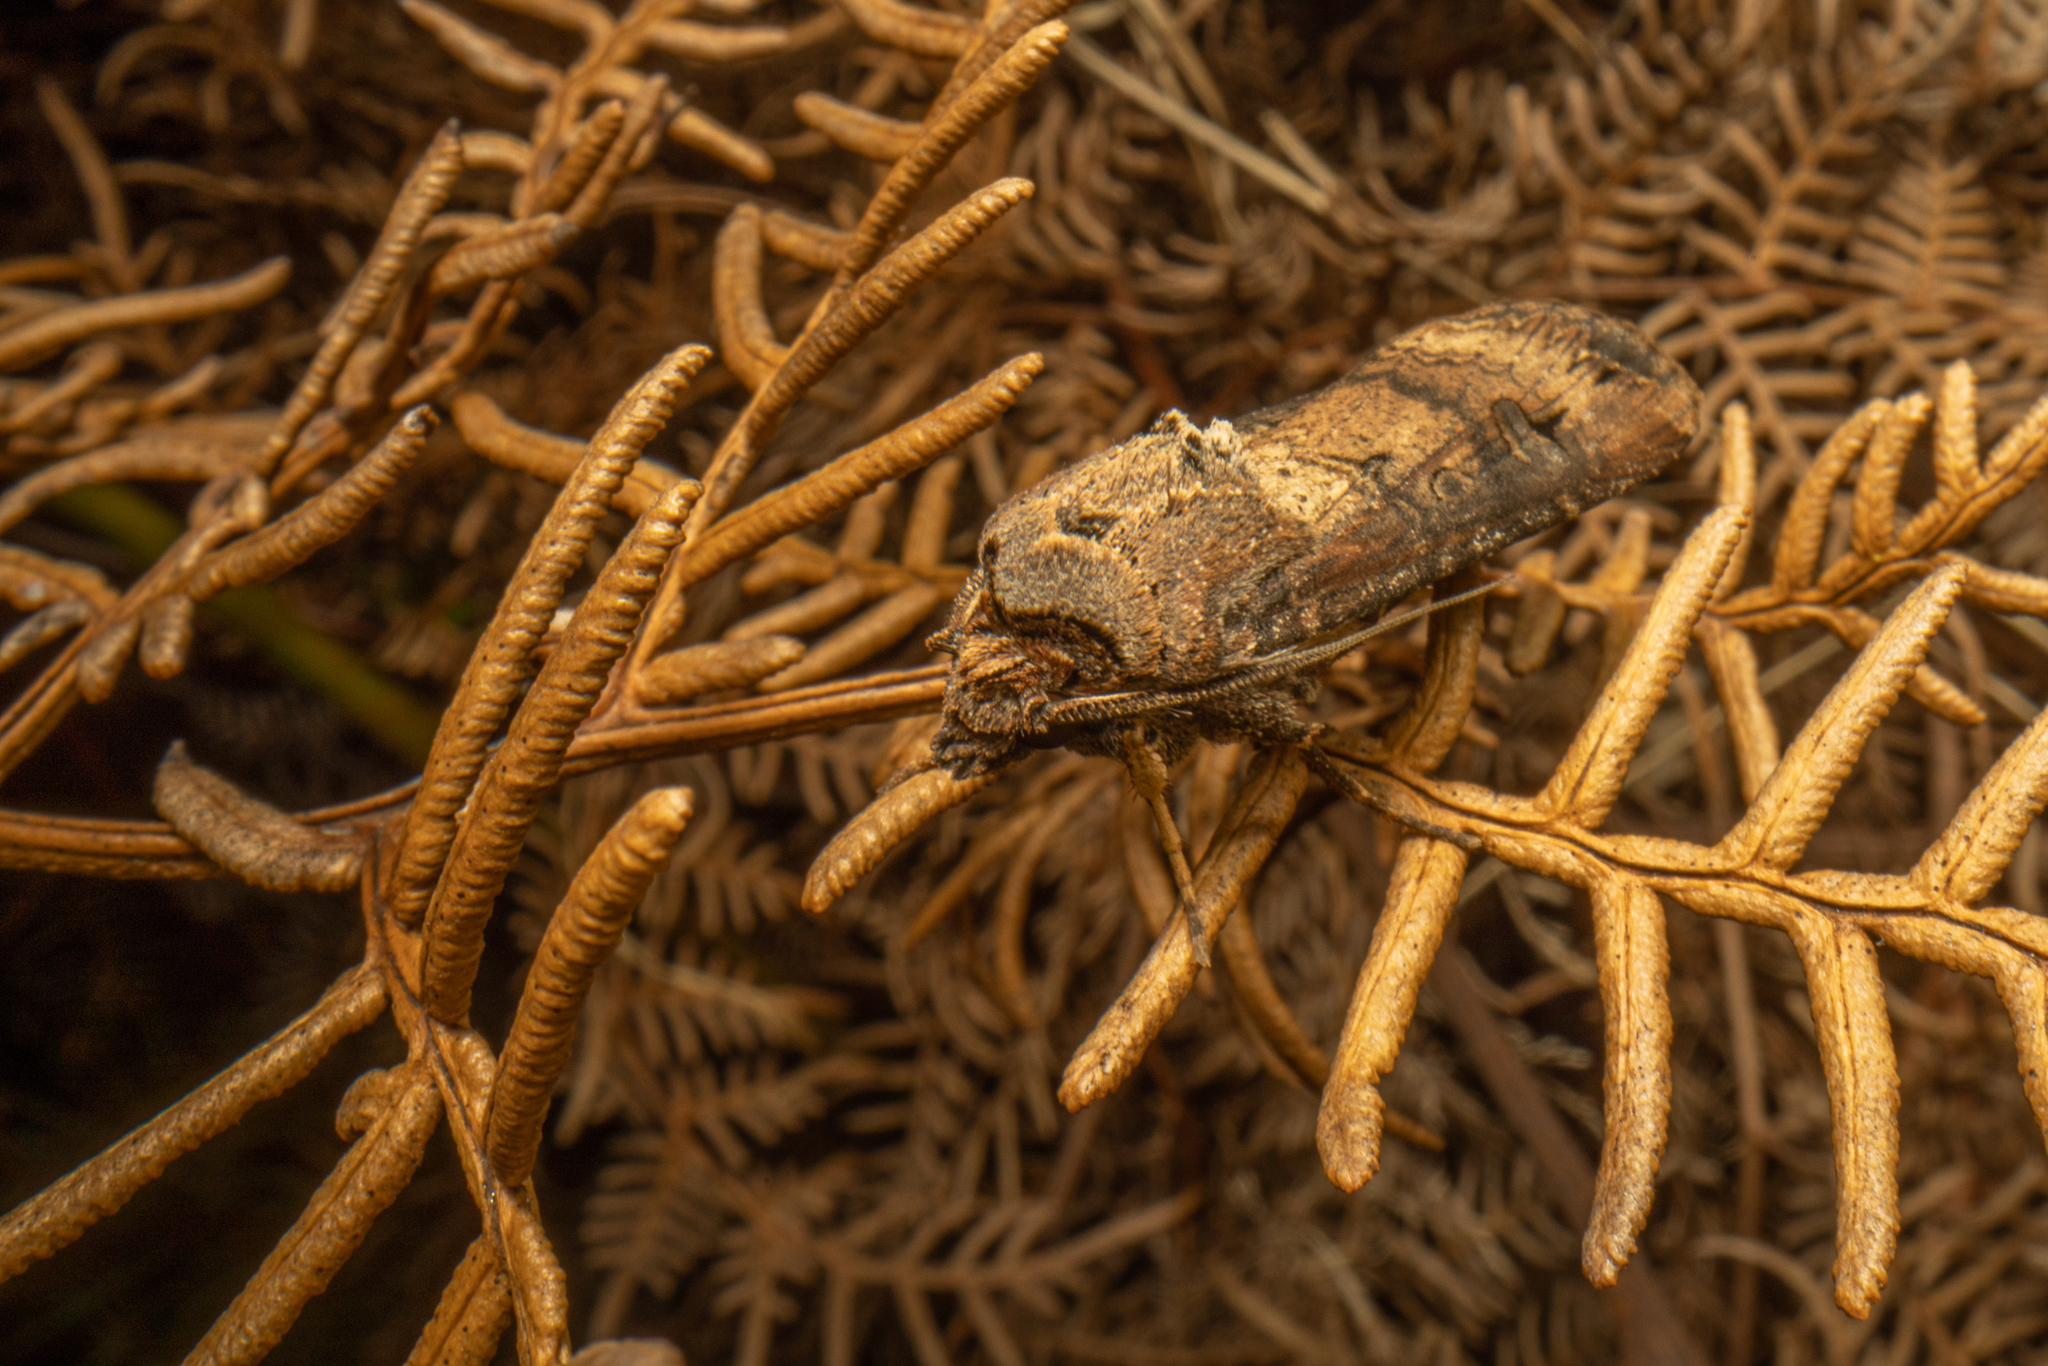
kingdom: Animalia
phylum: Arthropoda
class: Insecta
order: Lepidoptera
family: Noctuidae
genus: Agrotis
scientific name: Agrotis ipsilon
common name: Dark sword-grass
